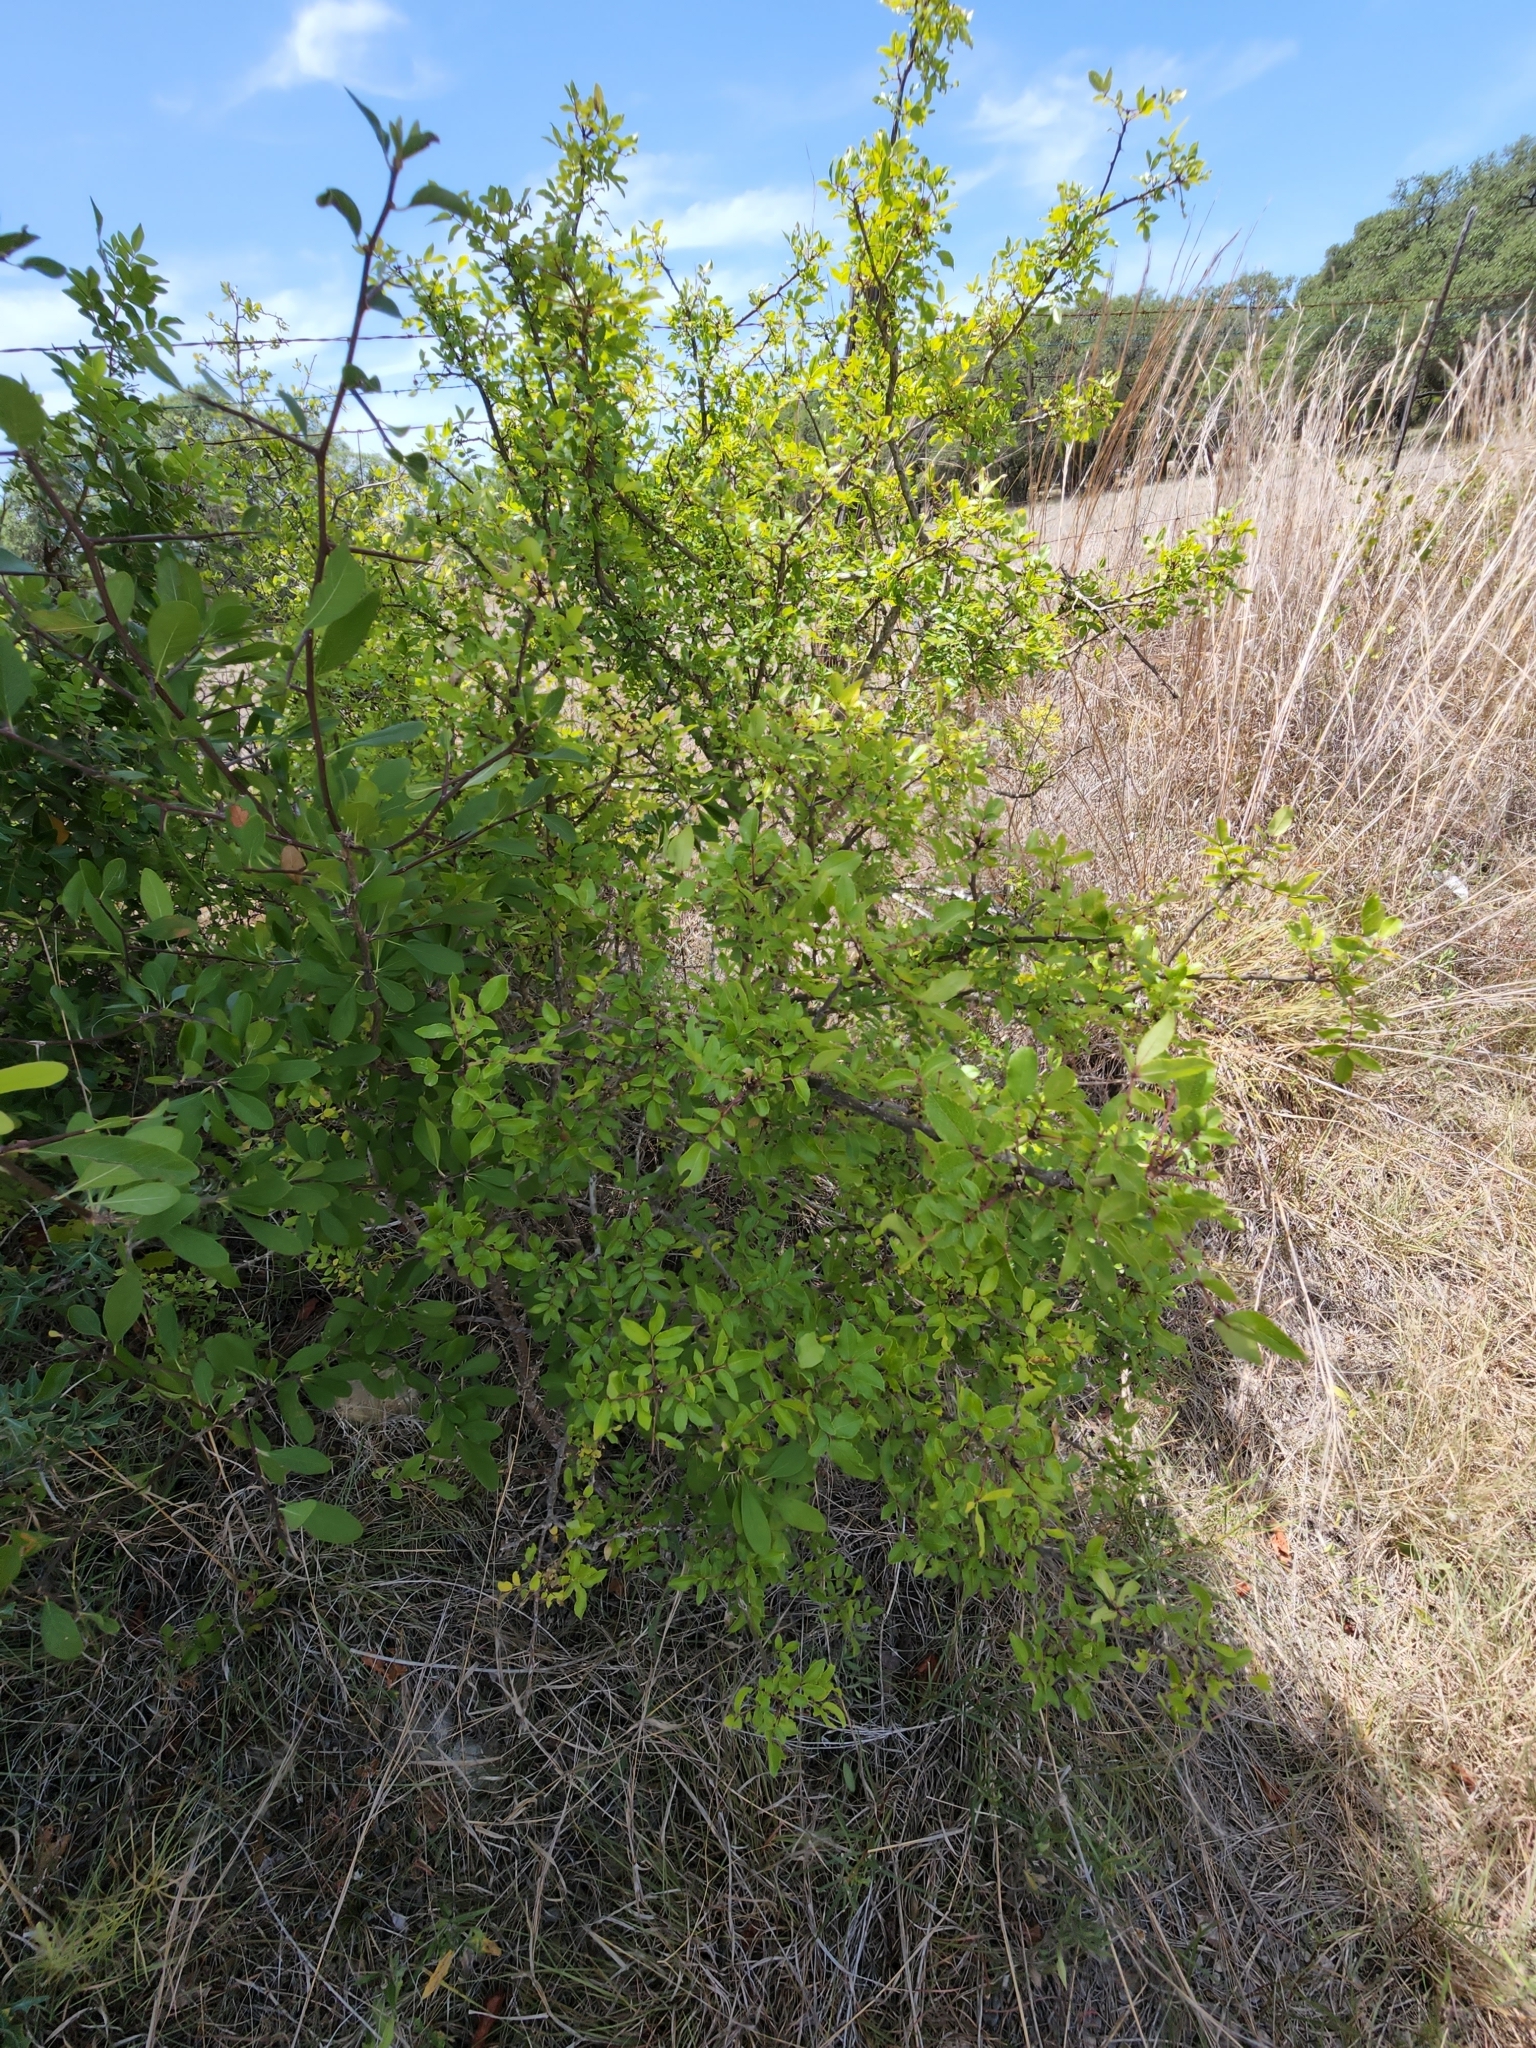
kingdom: Plantae
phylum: Tracheophyta
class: Magnoliopsida
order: Sapindales
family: Rutaceae
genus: Zanthoxylum
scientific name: Zanthoxylum clava-herculis
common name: Hercules'-club
